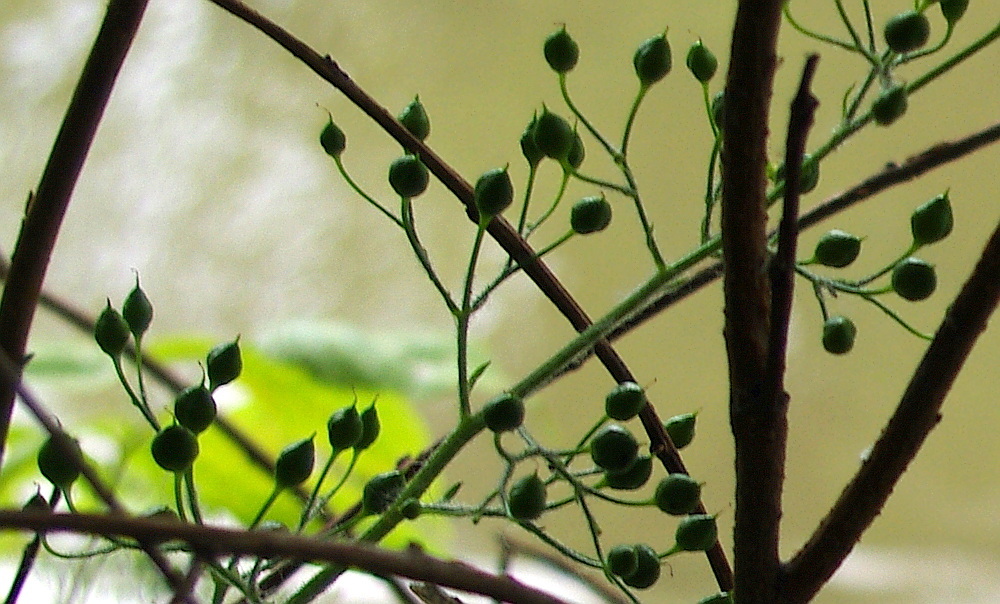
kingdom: Plantae
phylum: Tracheophyta
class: Magnoliopsida
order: Lamiales
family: Scrophulariaceae
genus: Scrophularia
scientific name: Scrophularia nodosa
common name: Common figwort
